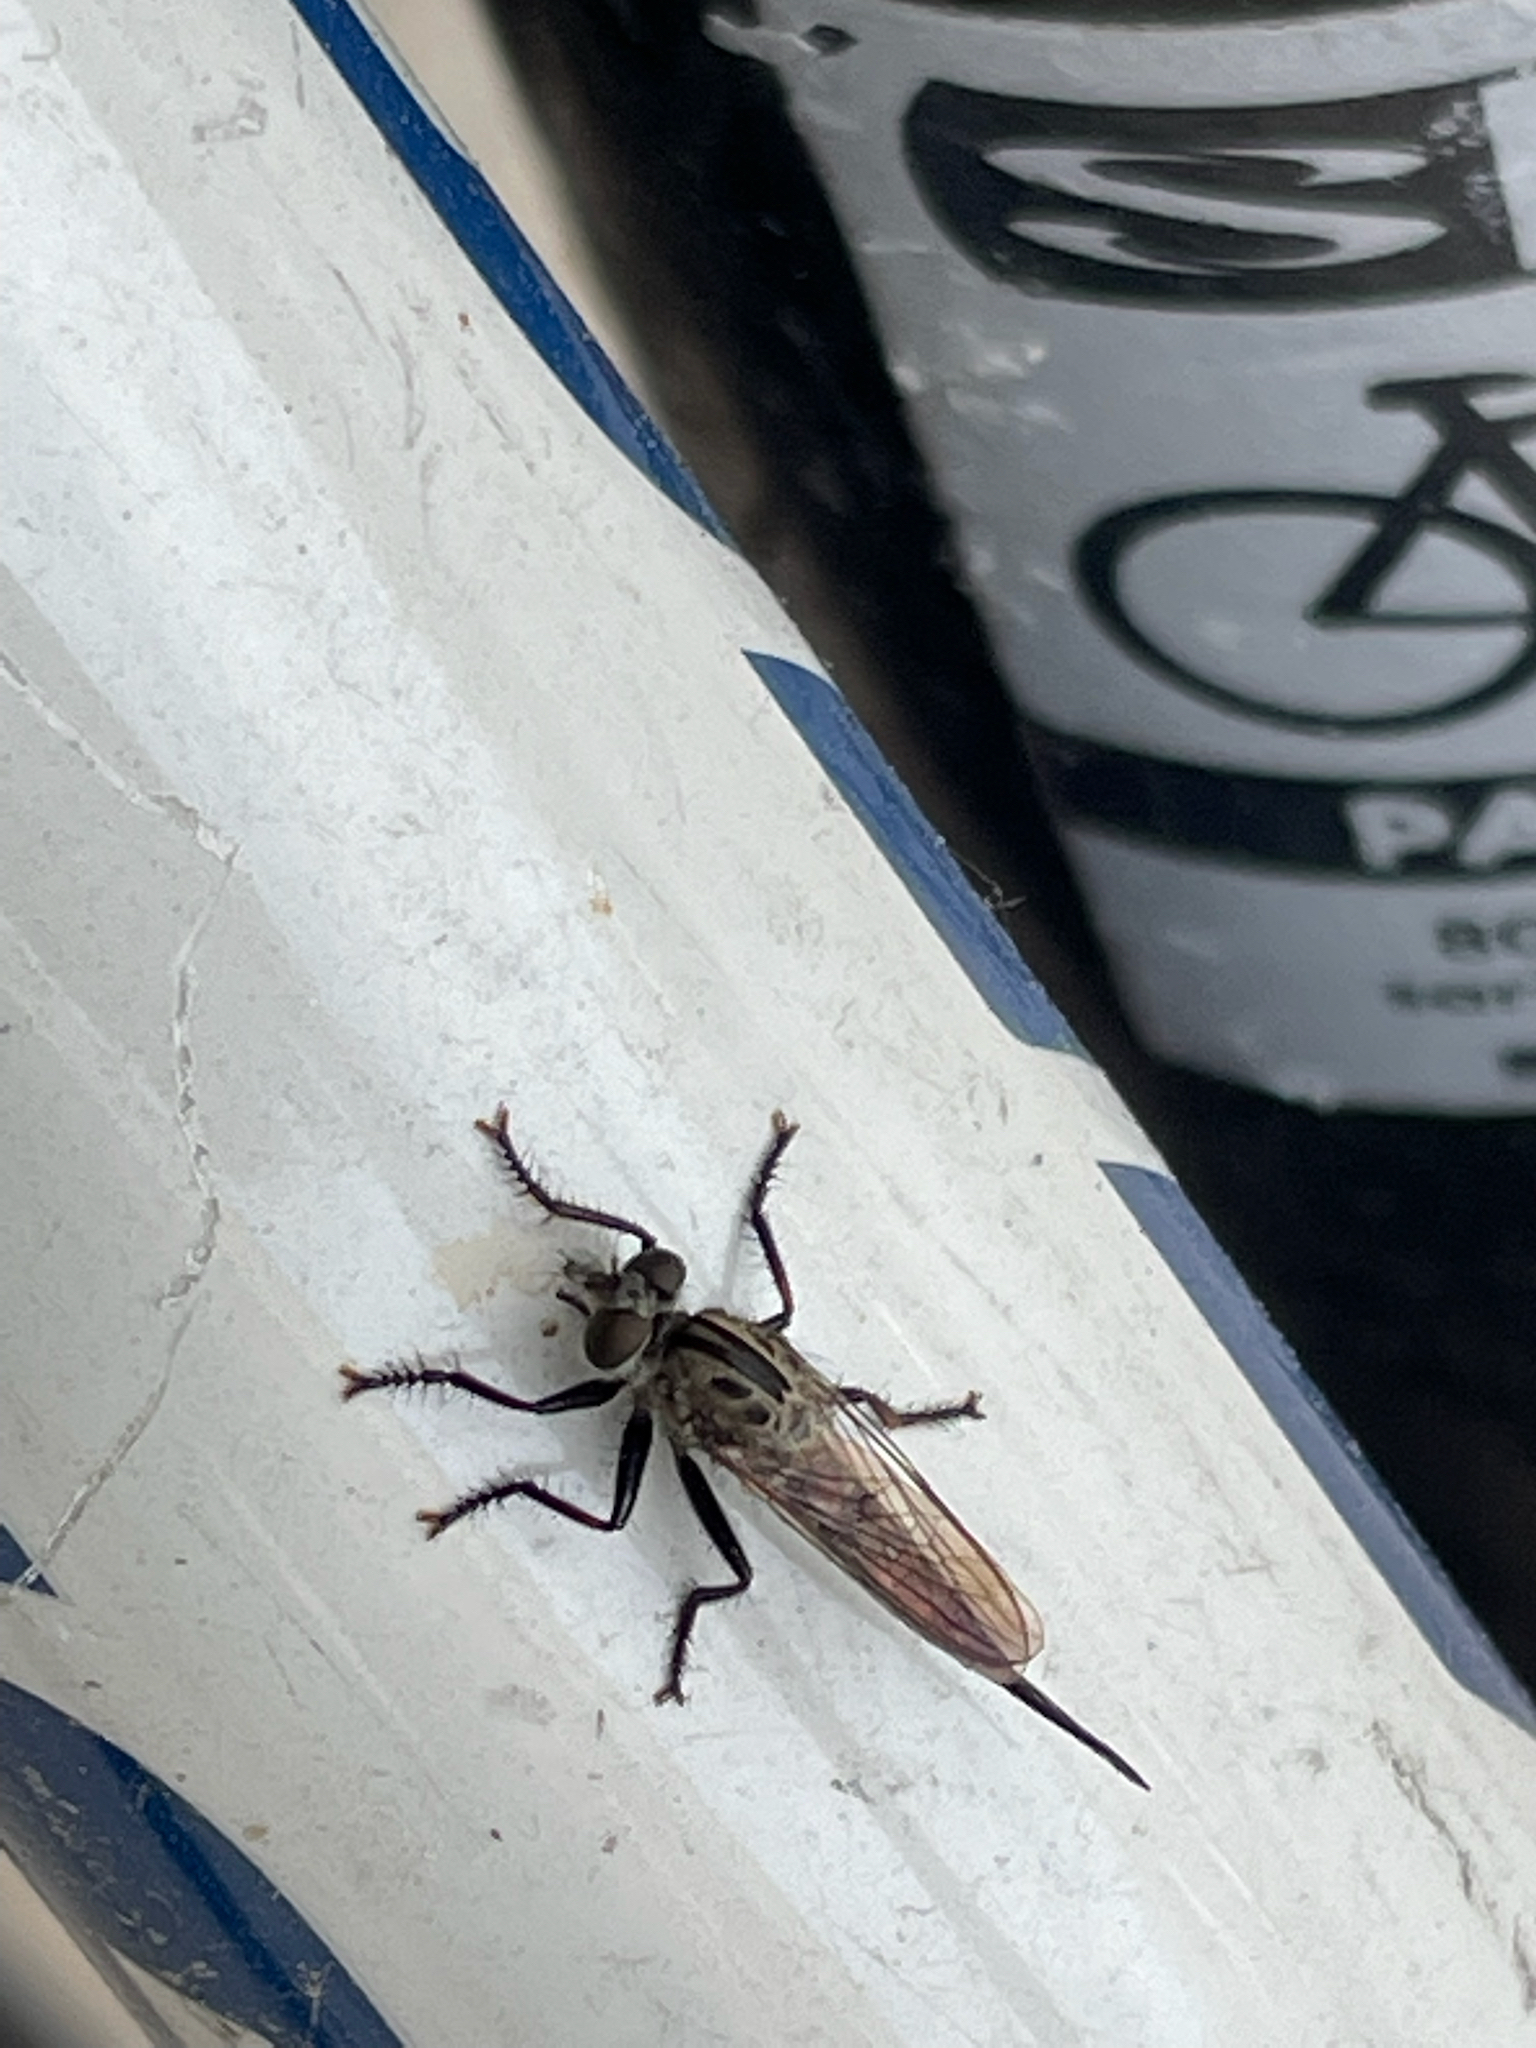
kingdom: Animalia
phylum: Arthropoda
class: Insecta
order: Diptera
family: Asilidae
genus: Efferia
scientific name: Efferia aestuans
